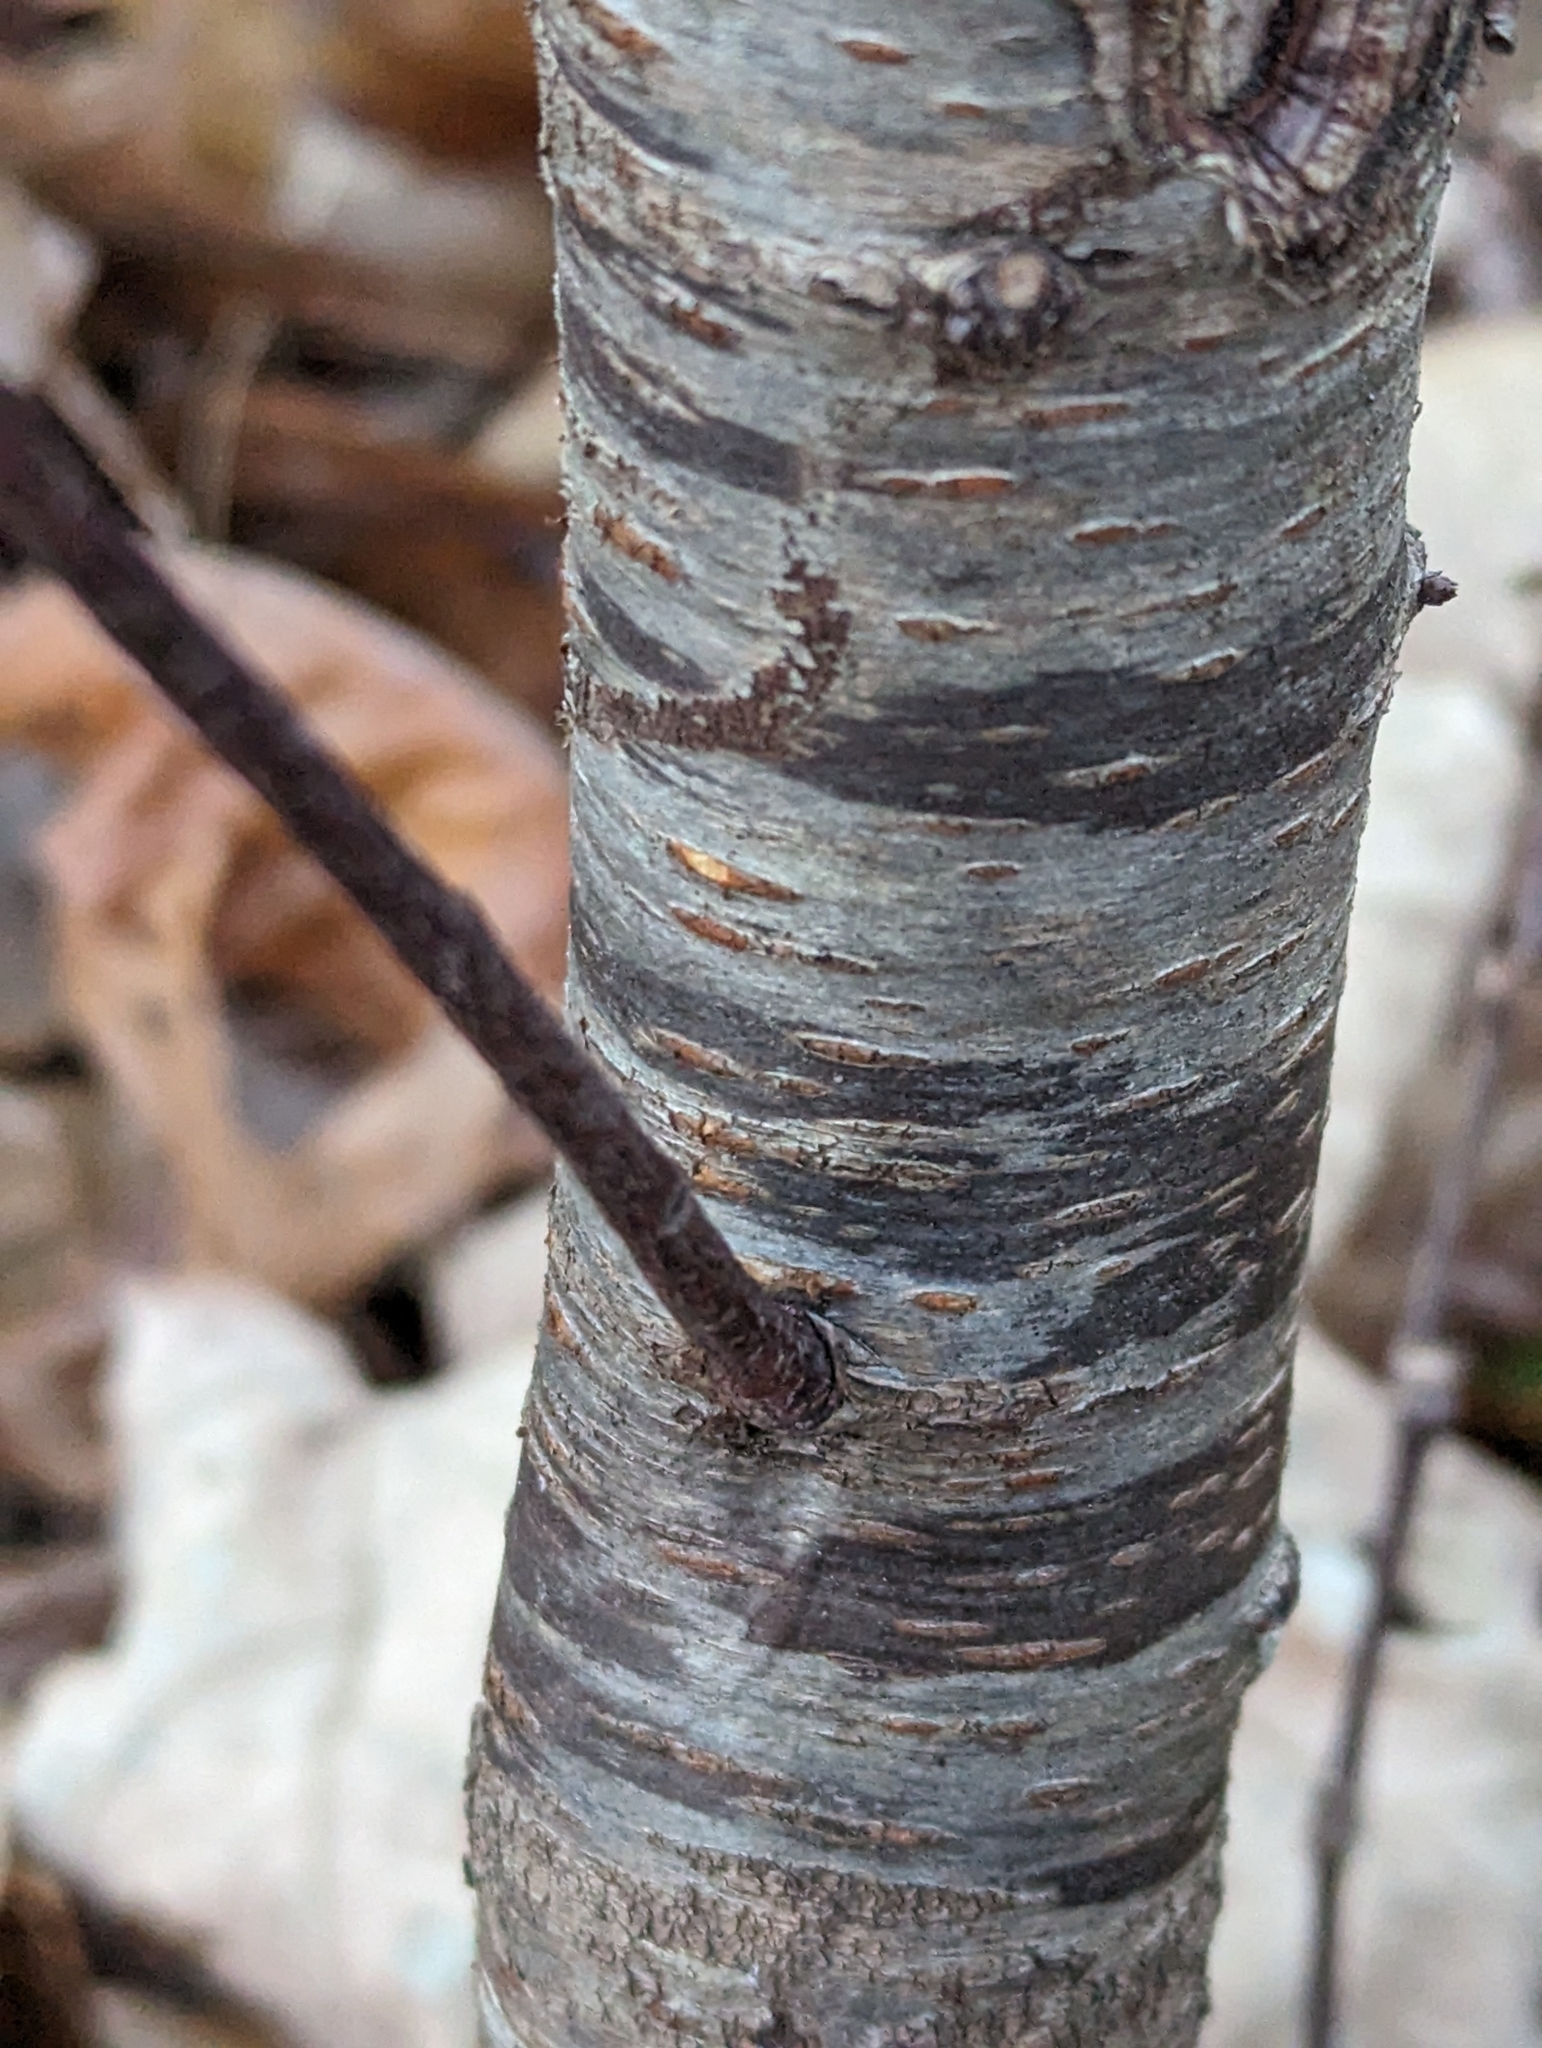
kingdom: Plantae
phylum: Tracheophyta
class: Magnoliopsida
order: Rosales
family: Rosaceae
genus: Prunus
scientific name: Prunus serotina
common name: Black cherry
